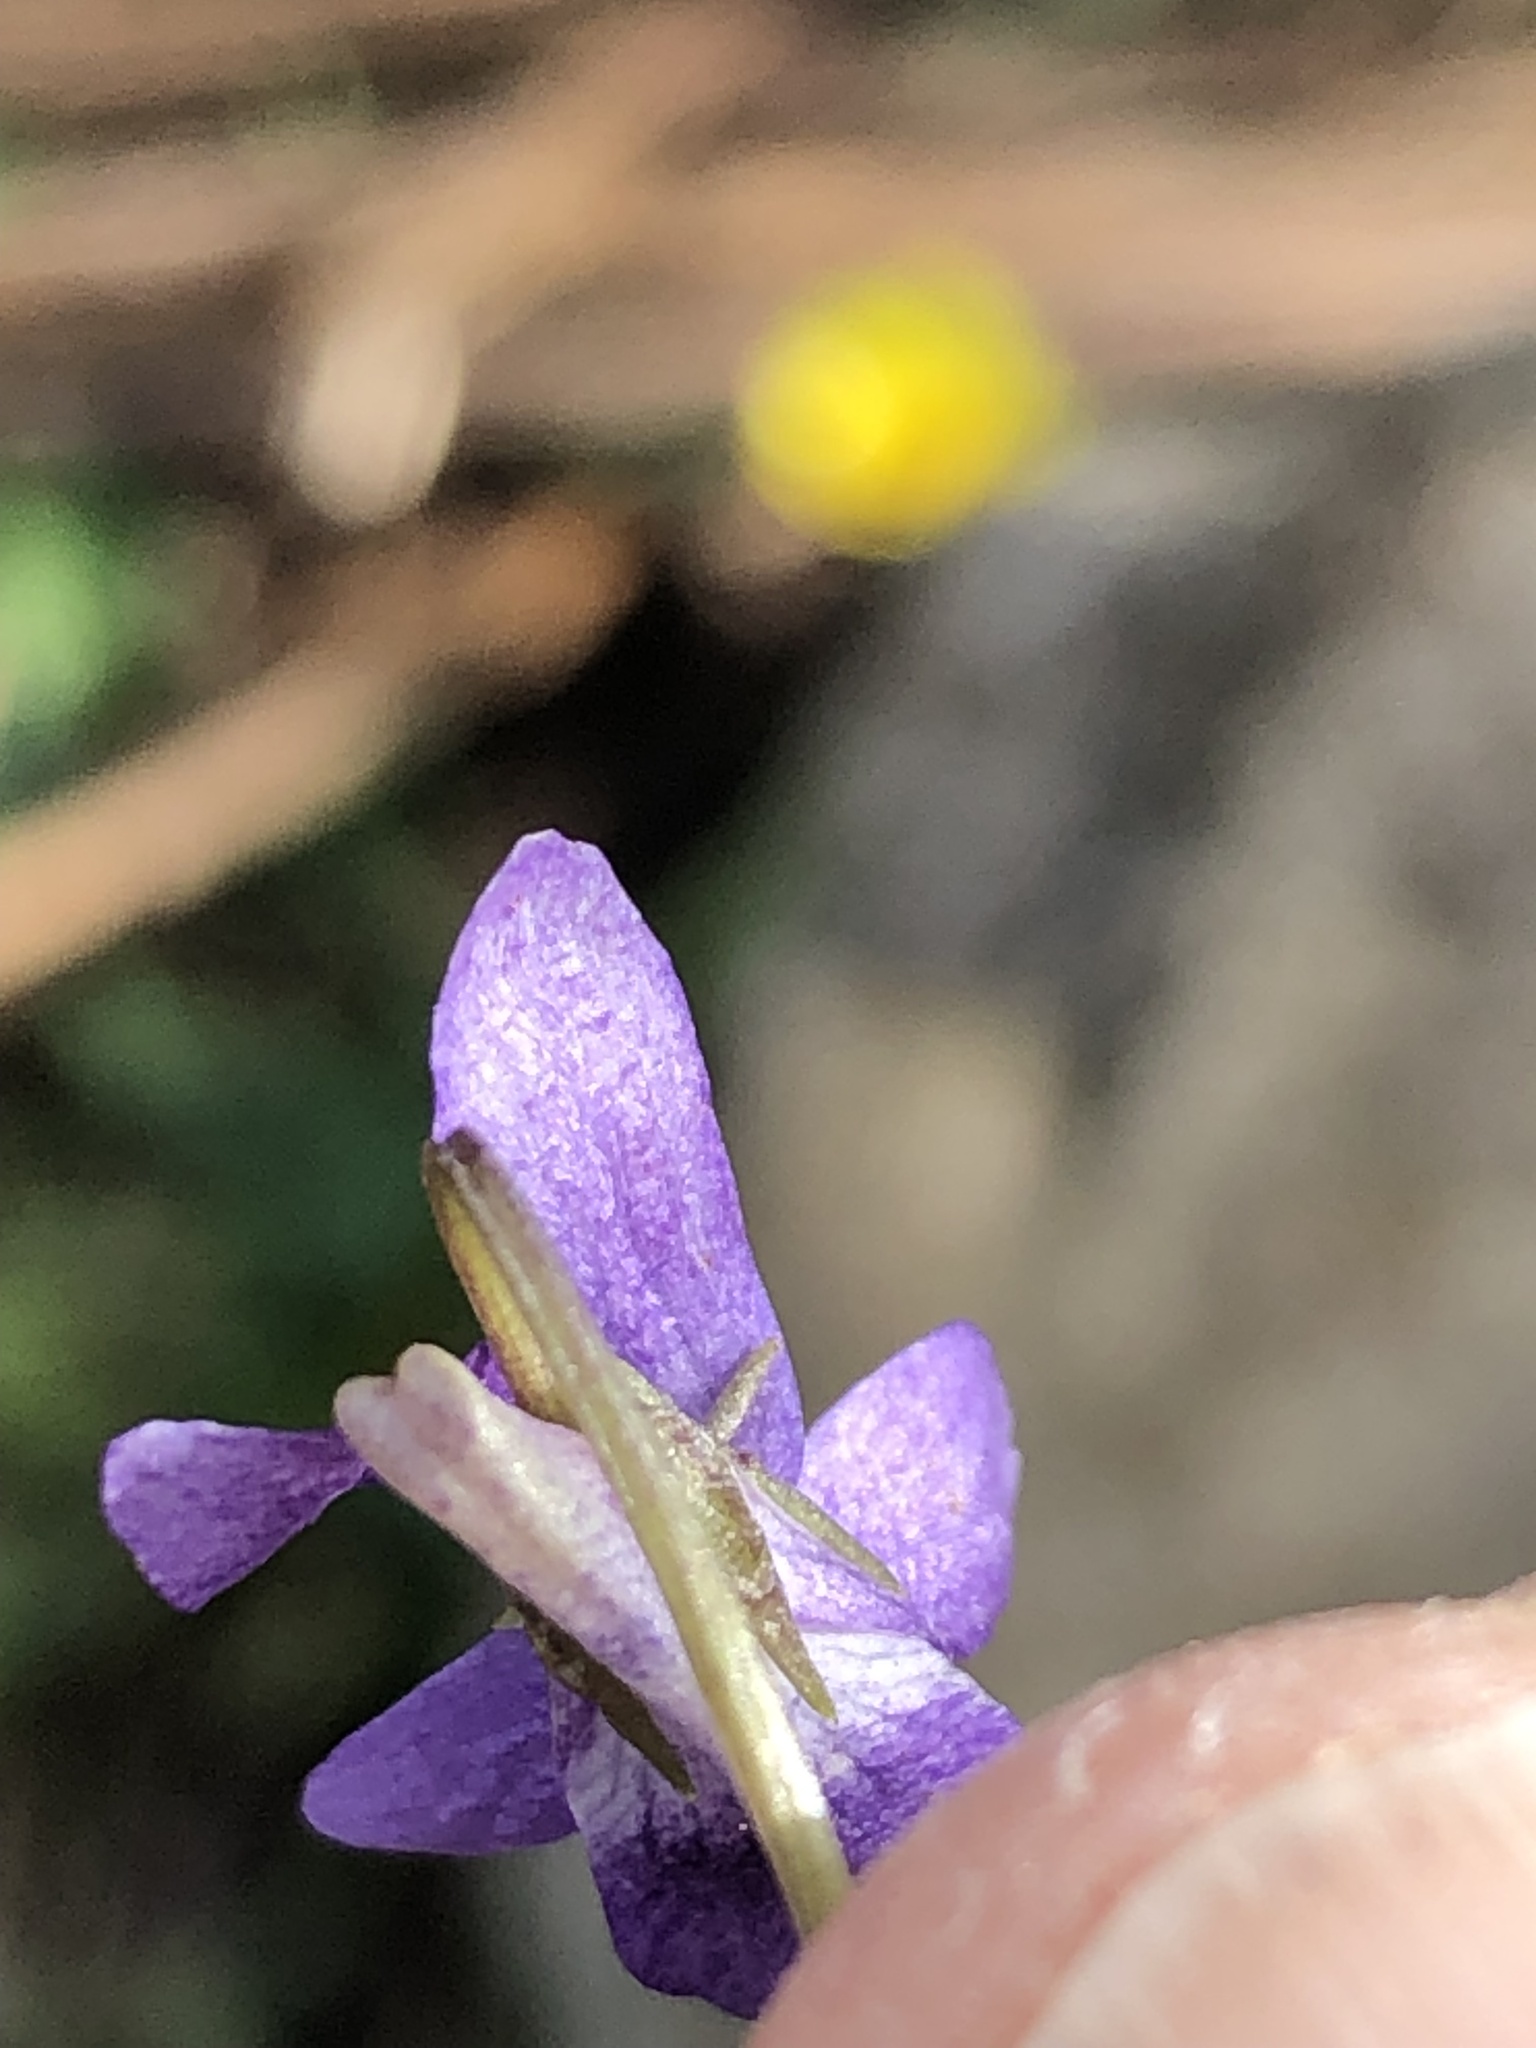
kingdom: Plantae
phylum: Tracheophyta
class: Magnoliopsida
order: Malpighiales
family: Violaceae
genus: Viola
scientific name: Viola riviniana
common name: Common dog-violet
